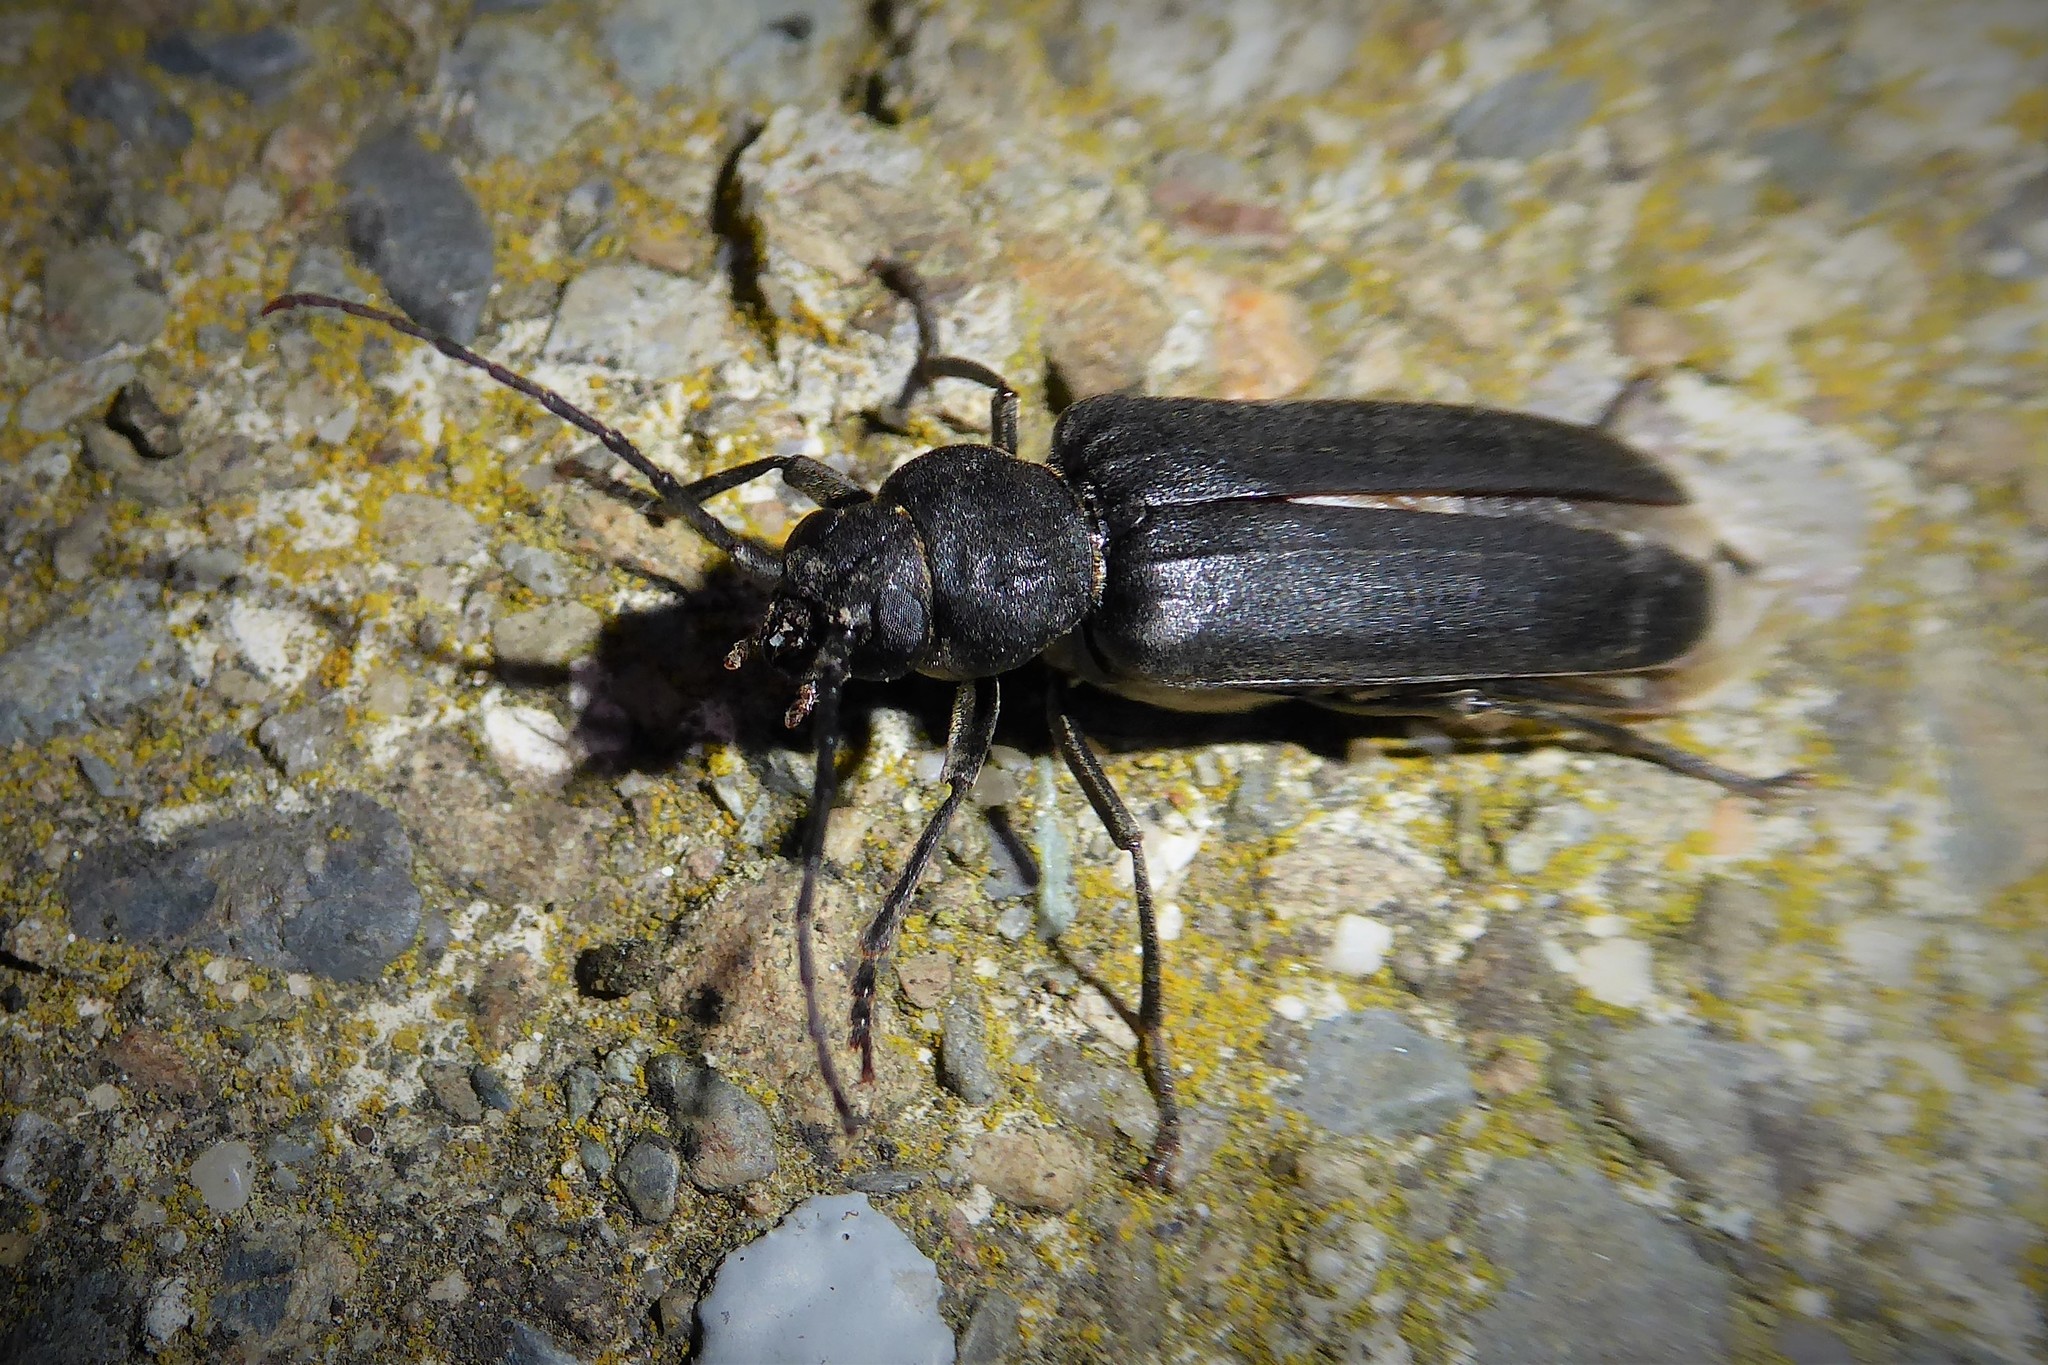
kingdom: Animalia
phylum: Arthropoda
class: Insecta
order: Coleoptera
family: Cerambycidae
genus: Arhopalus
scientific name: Arhopalus ferus
